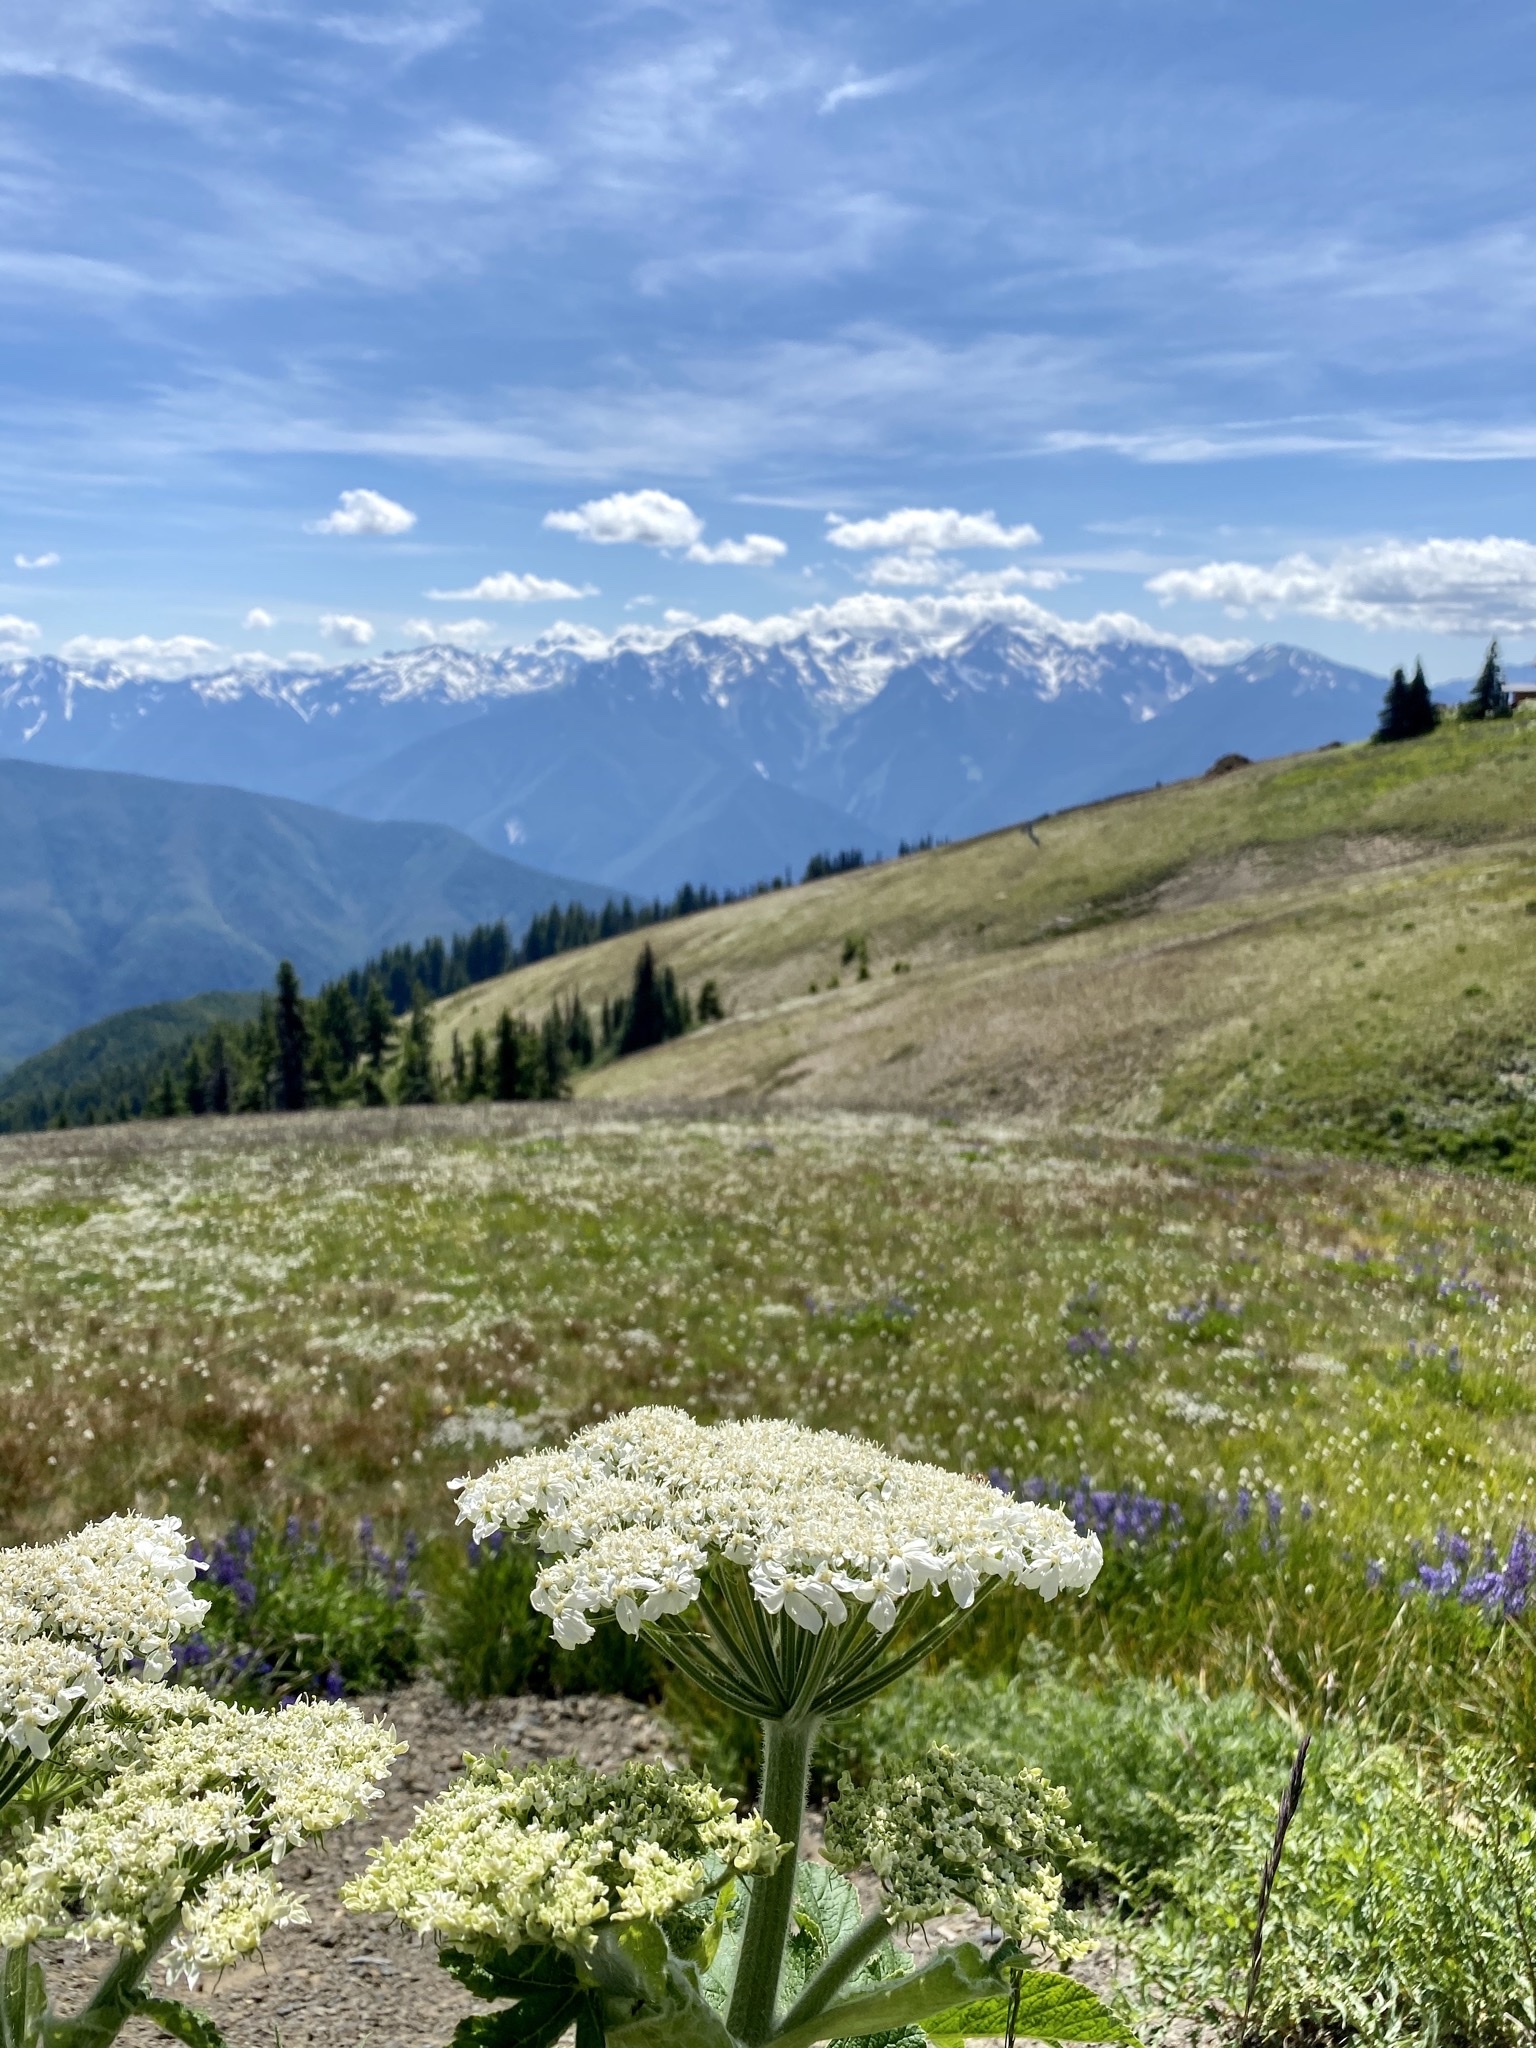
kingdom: Plantae
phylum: Tracheophyta
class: Magnoliopsida
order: Apiales
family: Apiaceae
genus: Heracleum
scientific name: Heracleum maximum
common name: American cow parsnip
